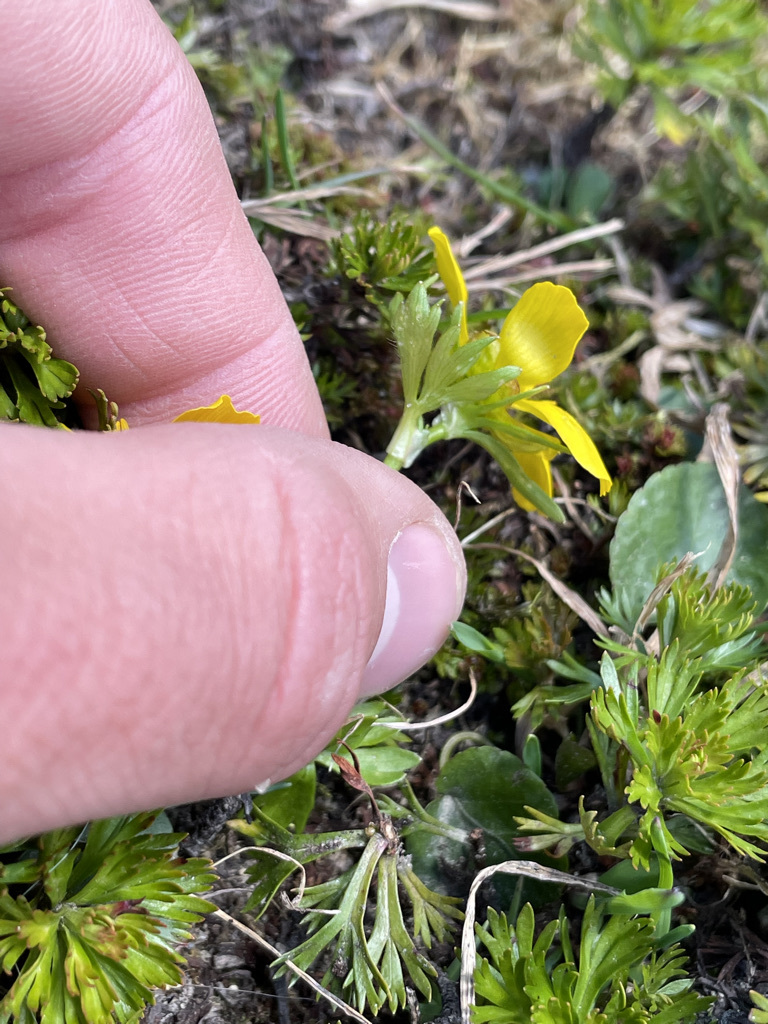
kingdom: Plantae
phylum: Tracheophyta
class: Magnoliopsida
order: Ranunculales
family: Ranunculaceae
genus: Anemonastrum
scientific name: Anemonastrum richardsonii
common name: Richardson's anemone
